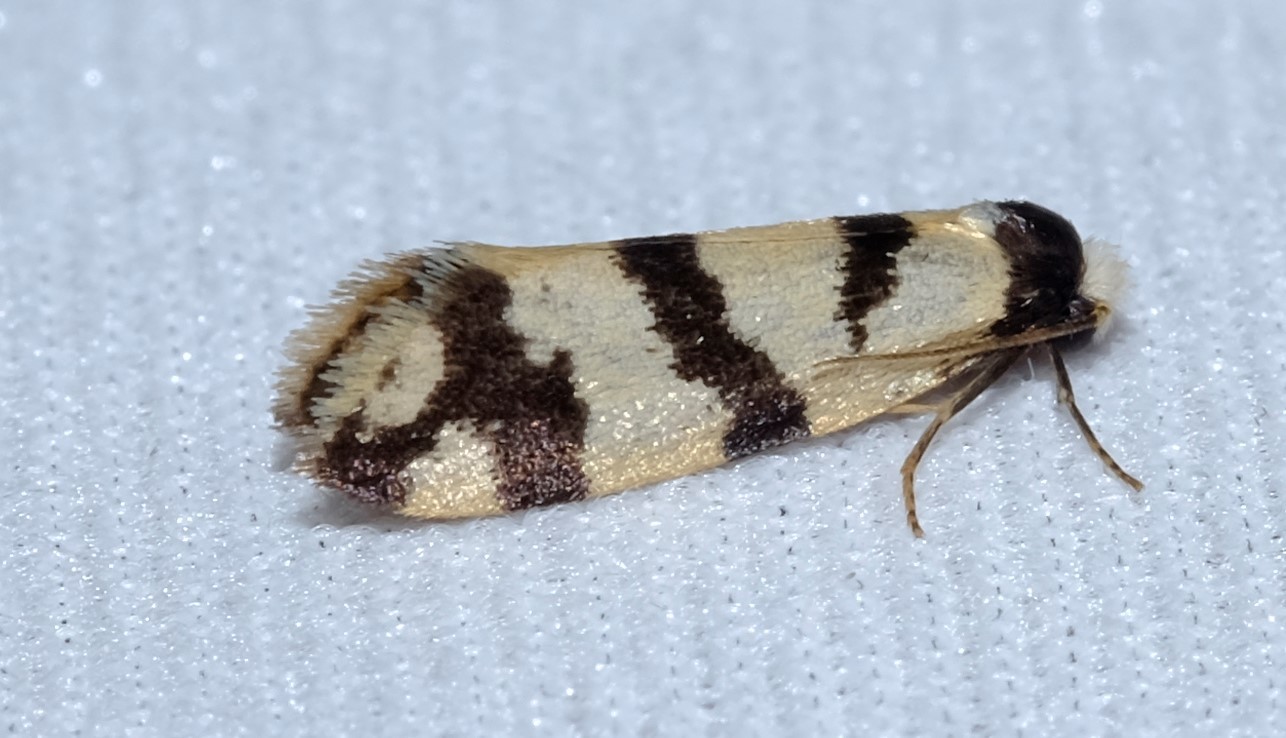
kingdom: Animalia
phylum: Arthropoda
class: Insecta
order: Lepidoptera
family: Psychidae
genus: Lepidoscia
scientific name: Lepidoscia characota
